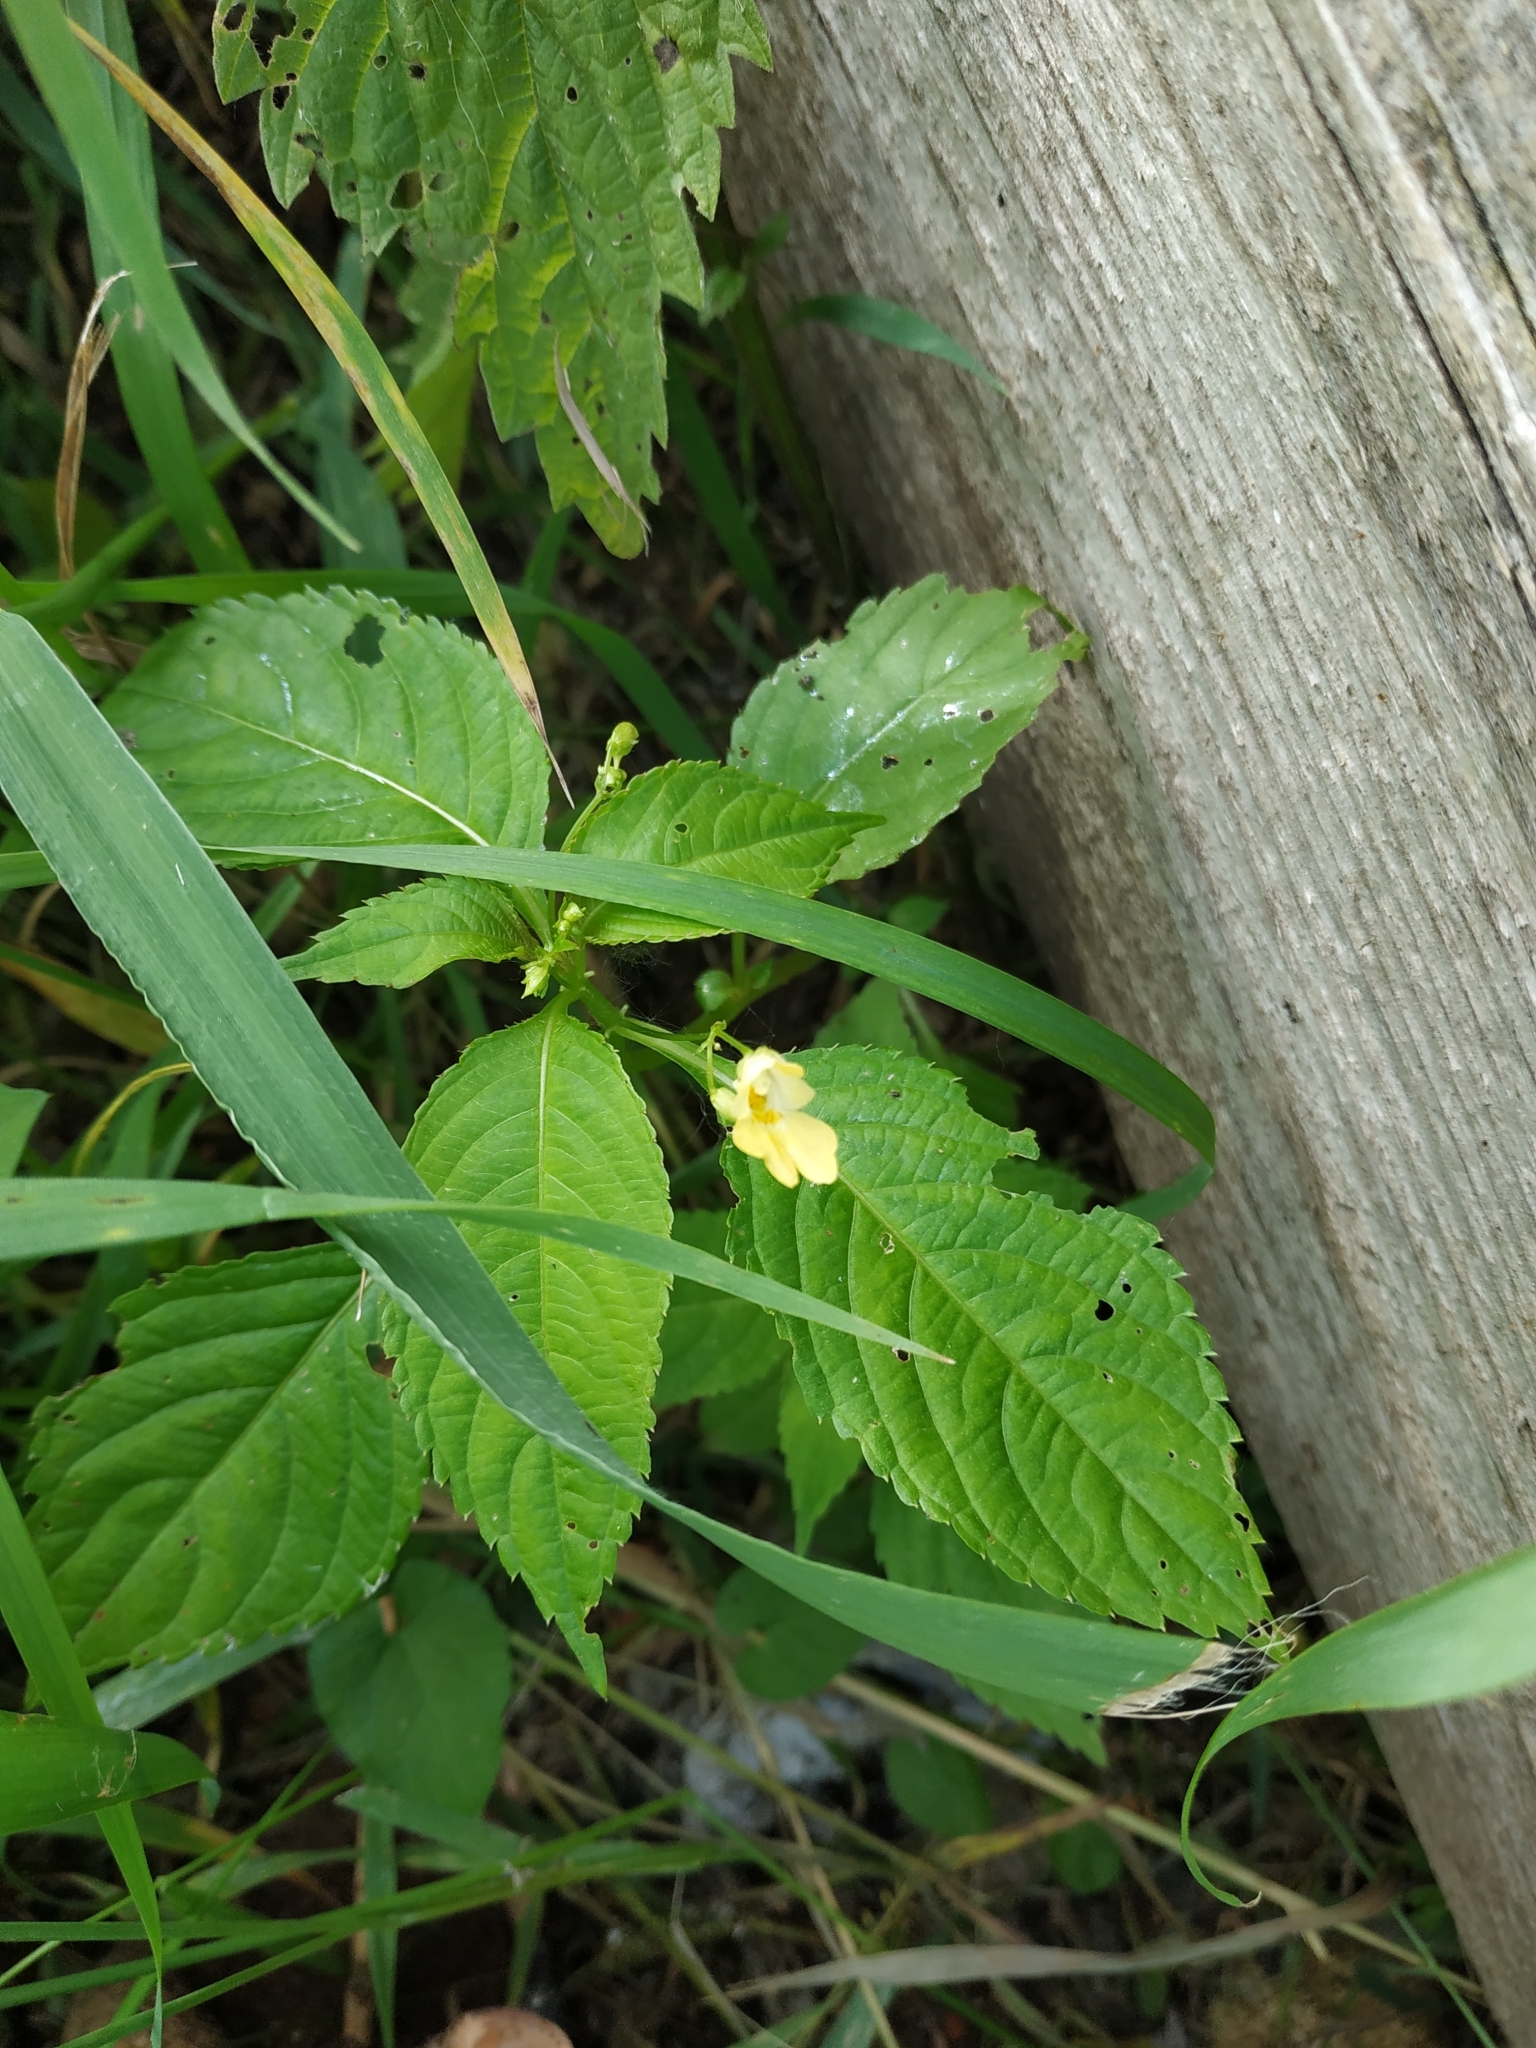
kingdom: Plantae
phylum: Tracheophyta
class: Magnoliopsida
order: Ericales
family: Balsaminaceae
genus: Impatiens
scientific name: Impatiens parviflora
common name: Small balsam
